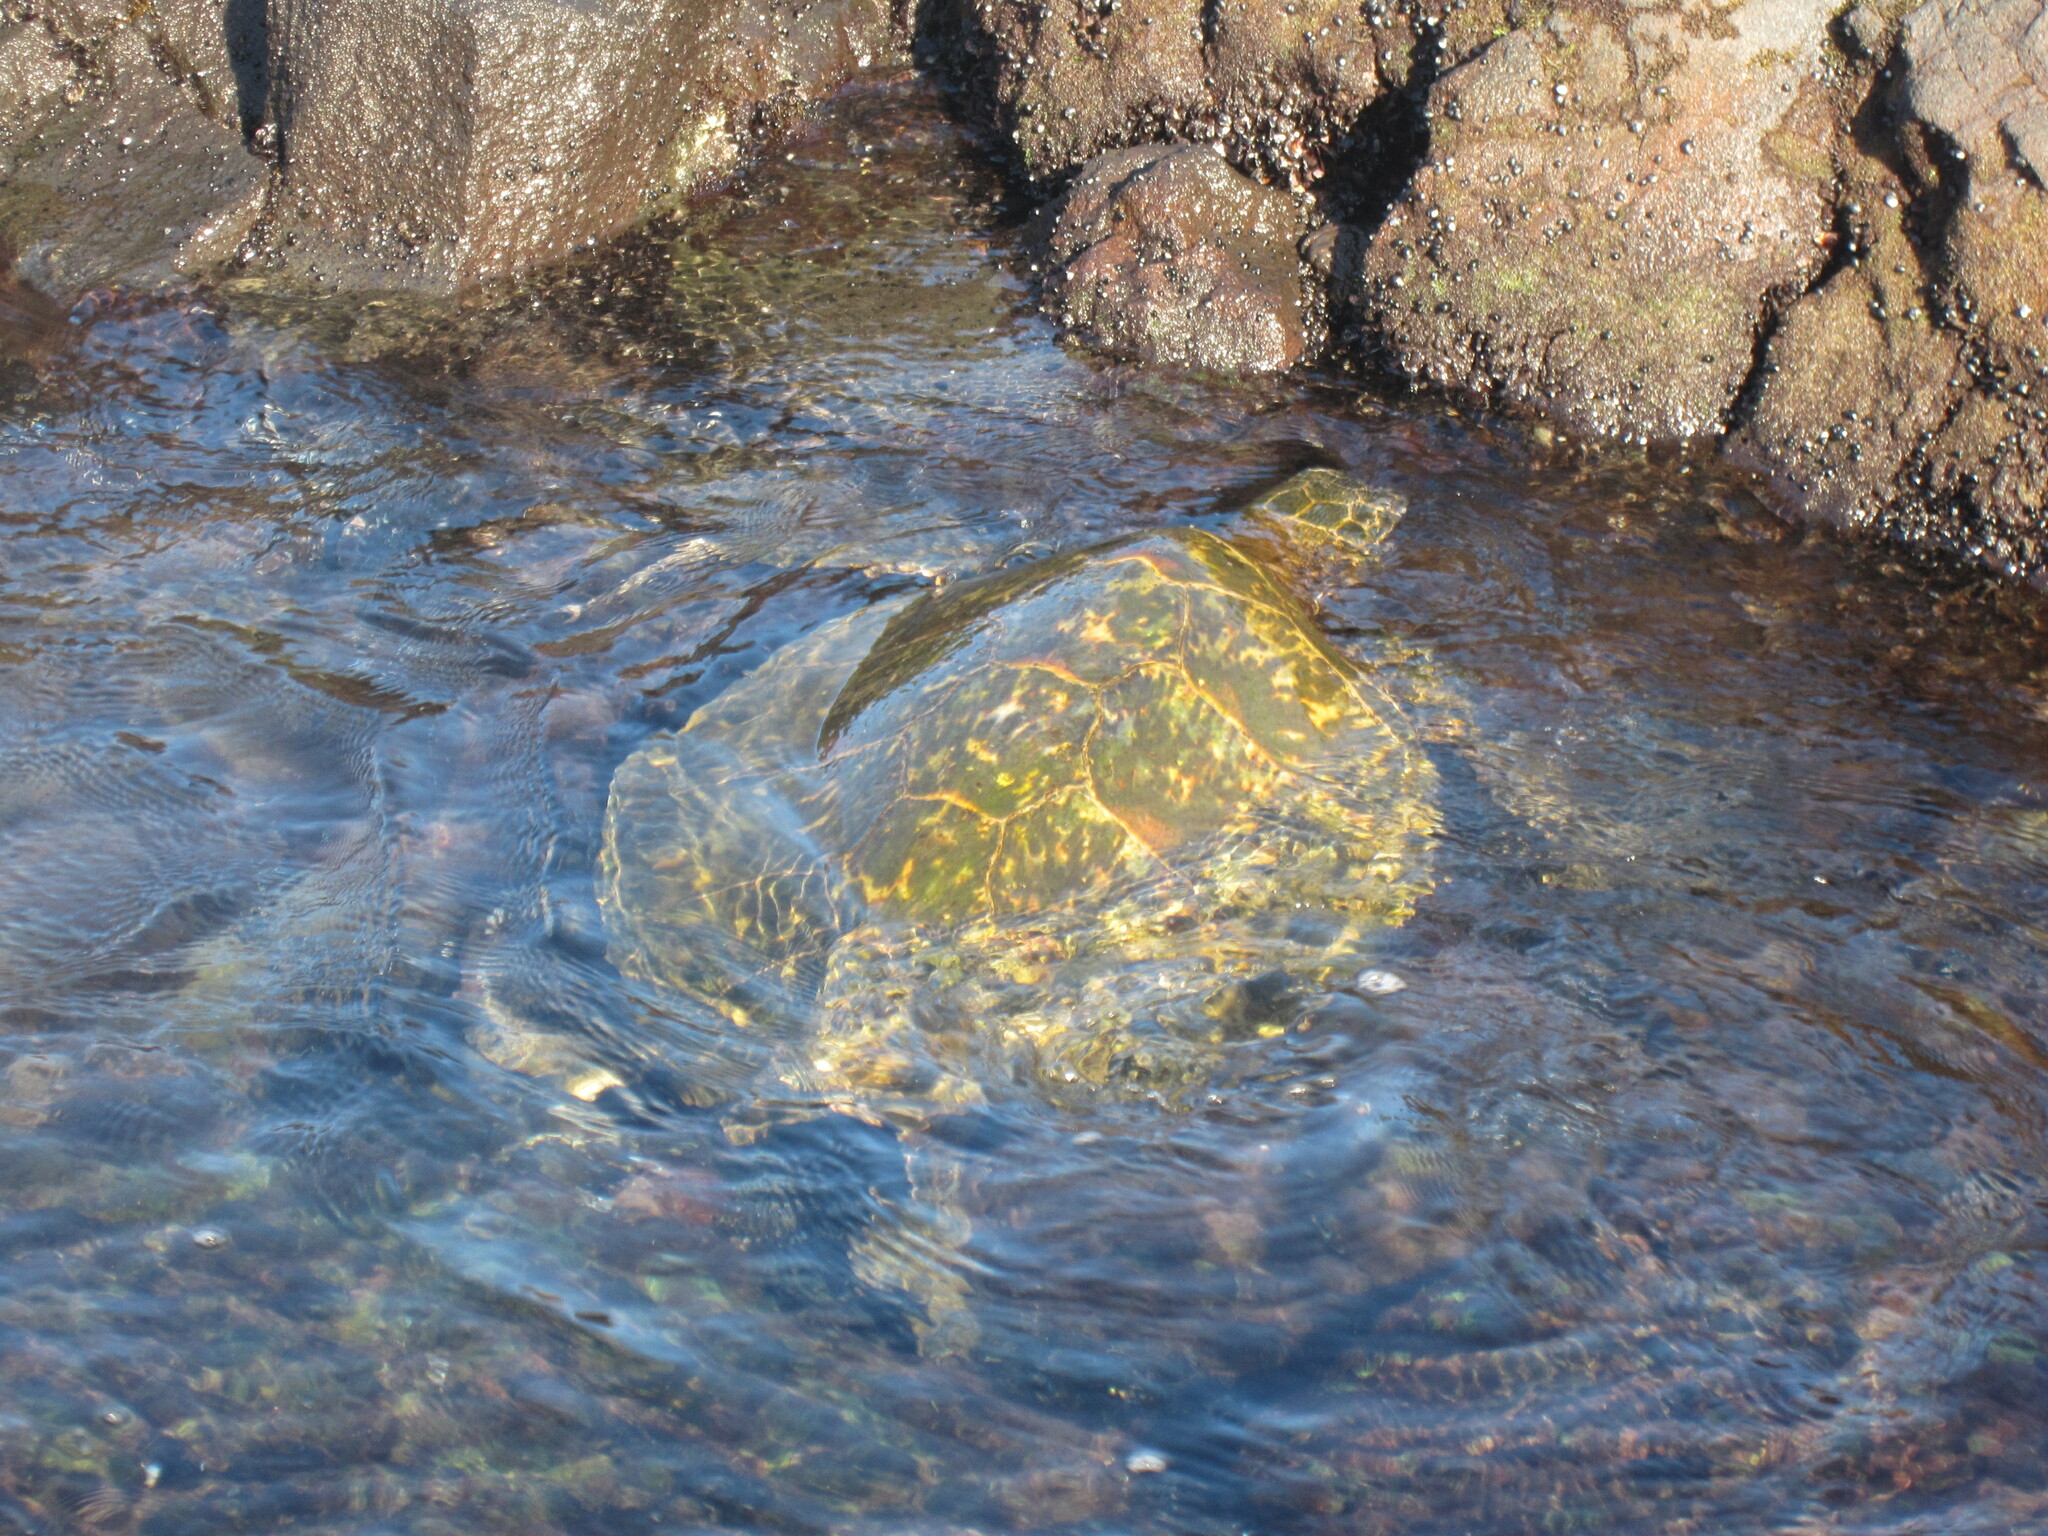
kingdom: Animalia
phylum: Chordata
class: Testudines
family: Cheloniidae
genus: Chelonia
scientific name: Chelonia mydas
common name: Green turtle
